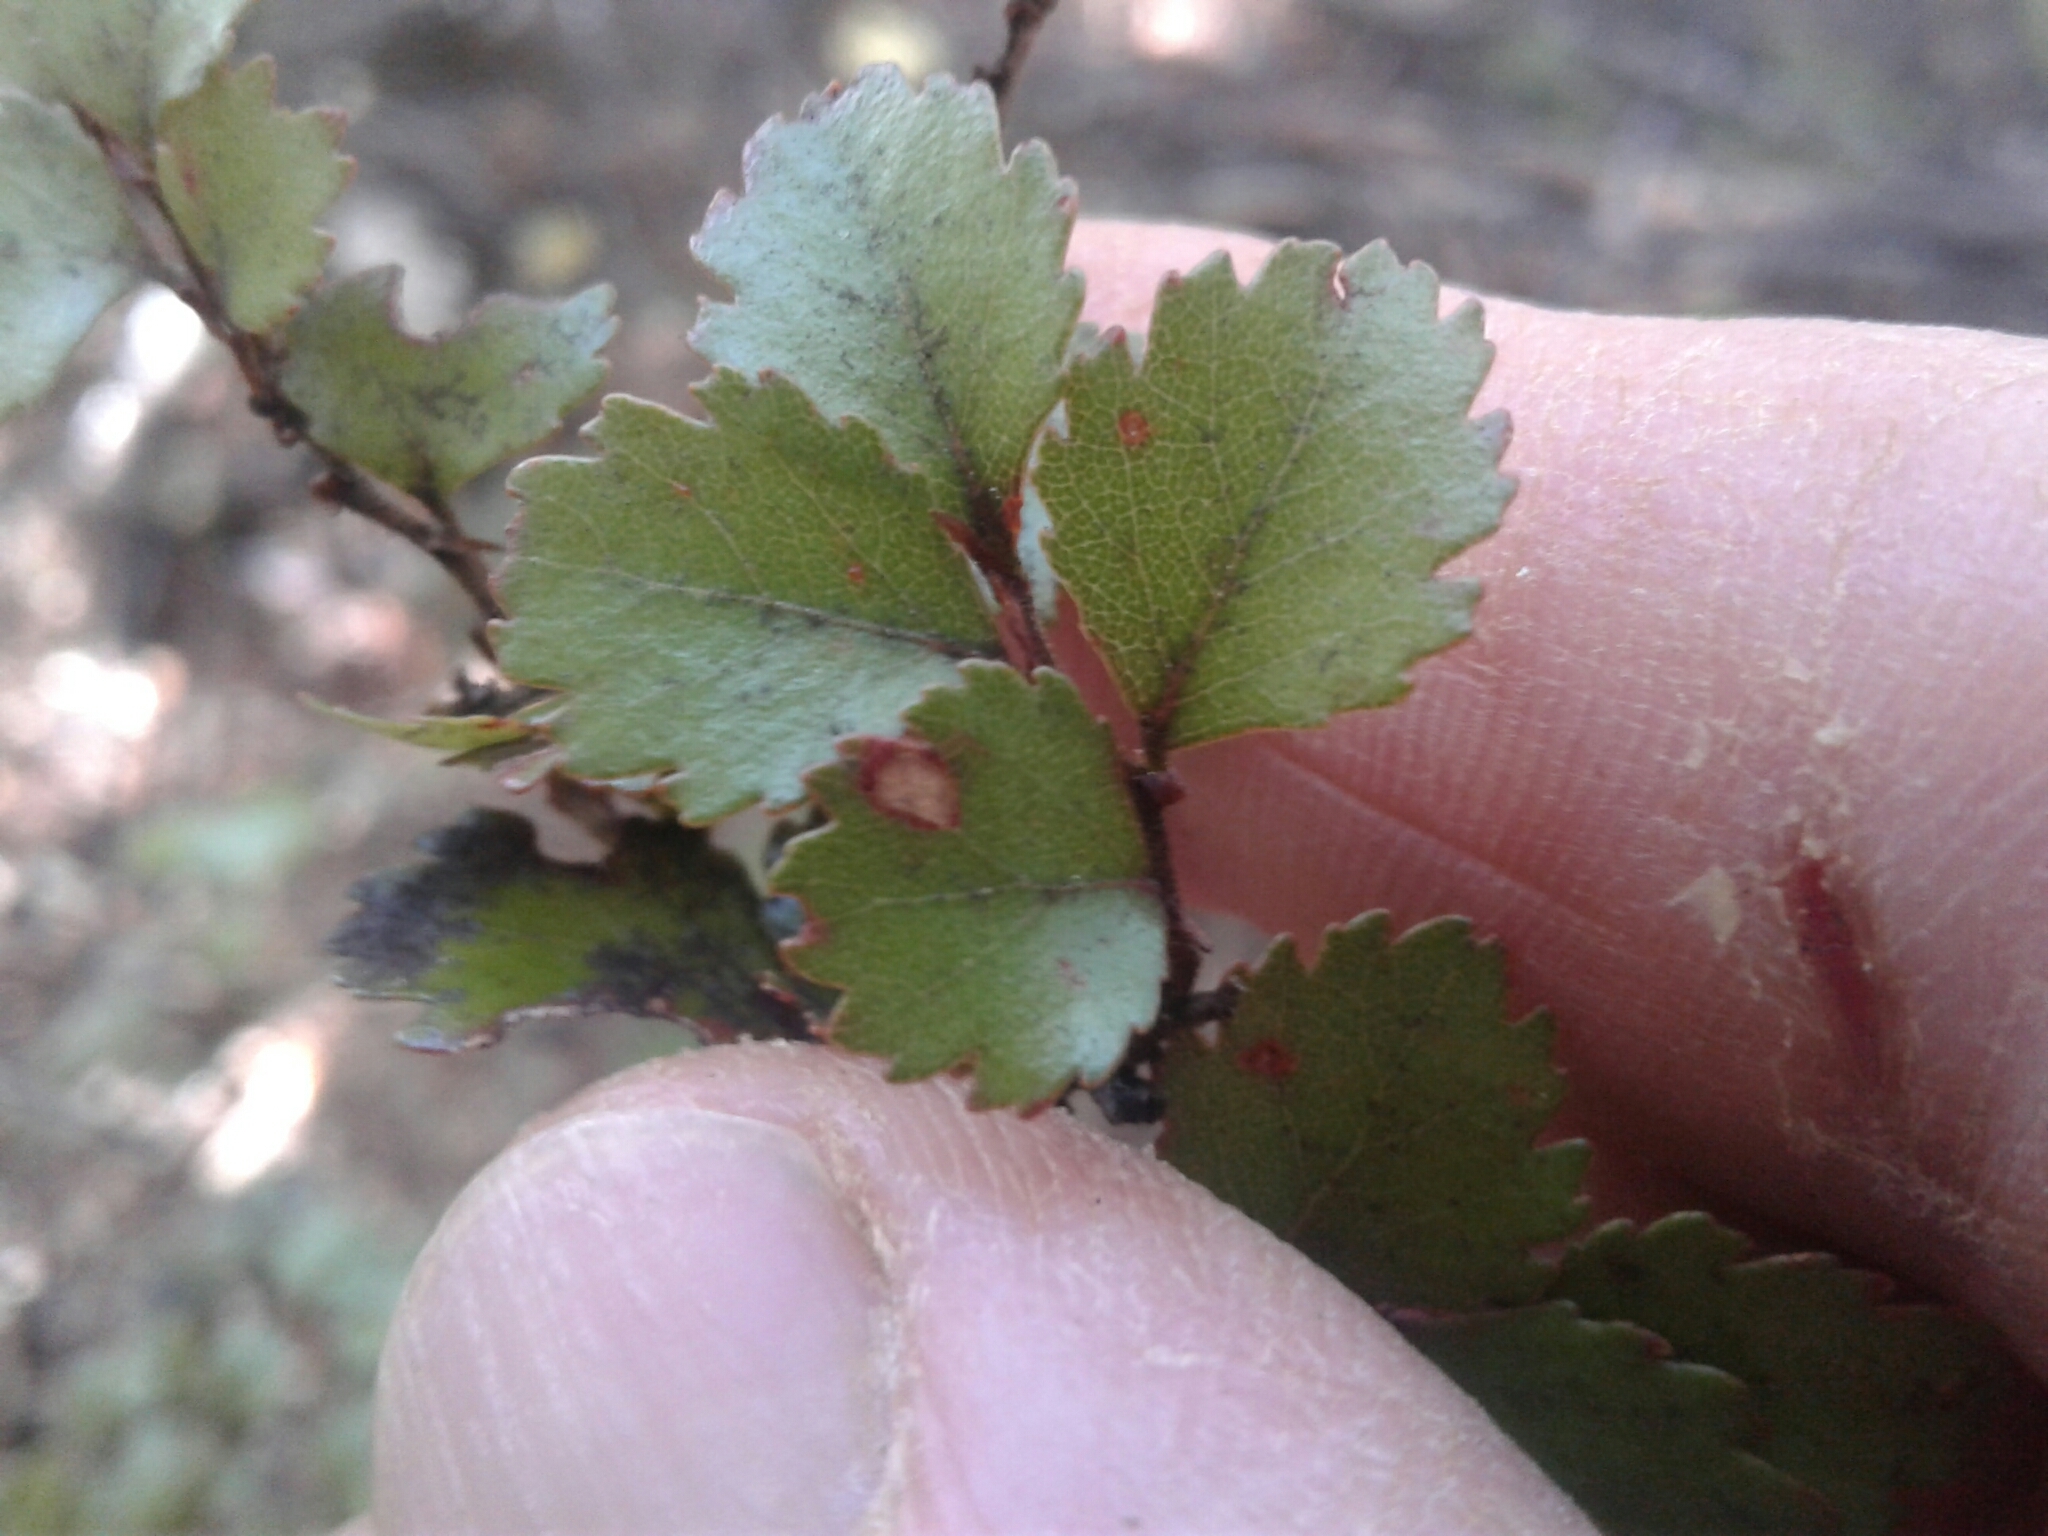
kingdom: Plantae
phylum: Tracheophyta
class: Magnoliopsida
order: Fagales
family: Nothofagaceae
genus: Nothofagus
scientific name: Nothofagus menziesii
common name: Silver beech
